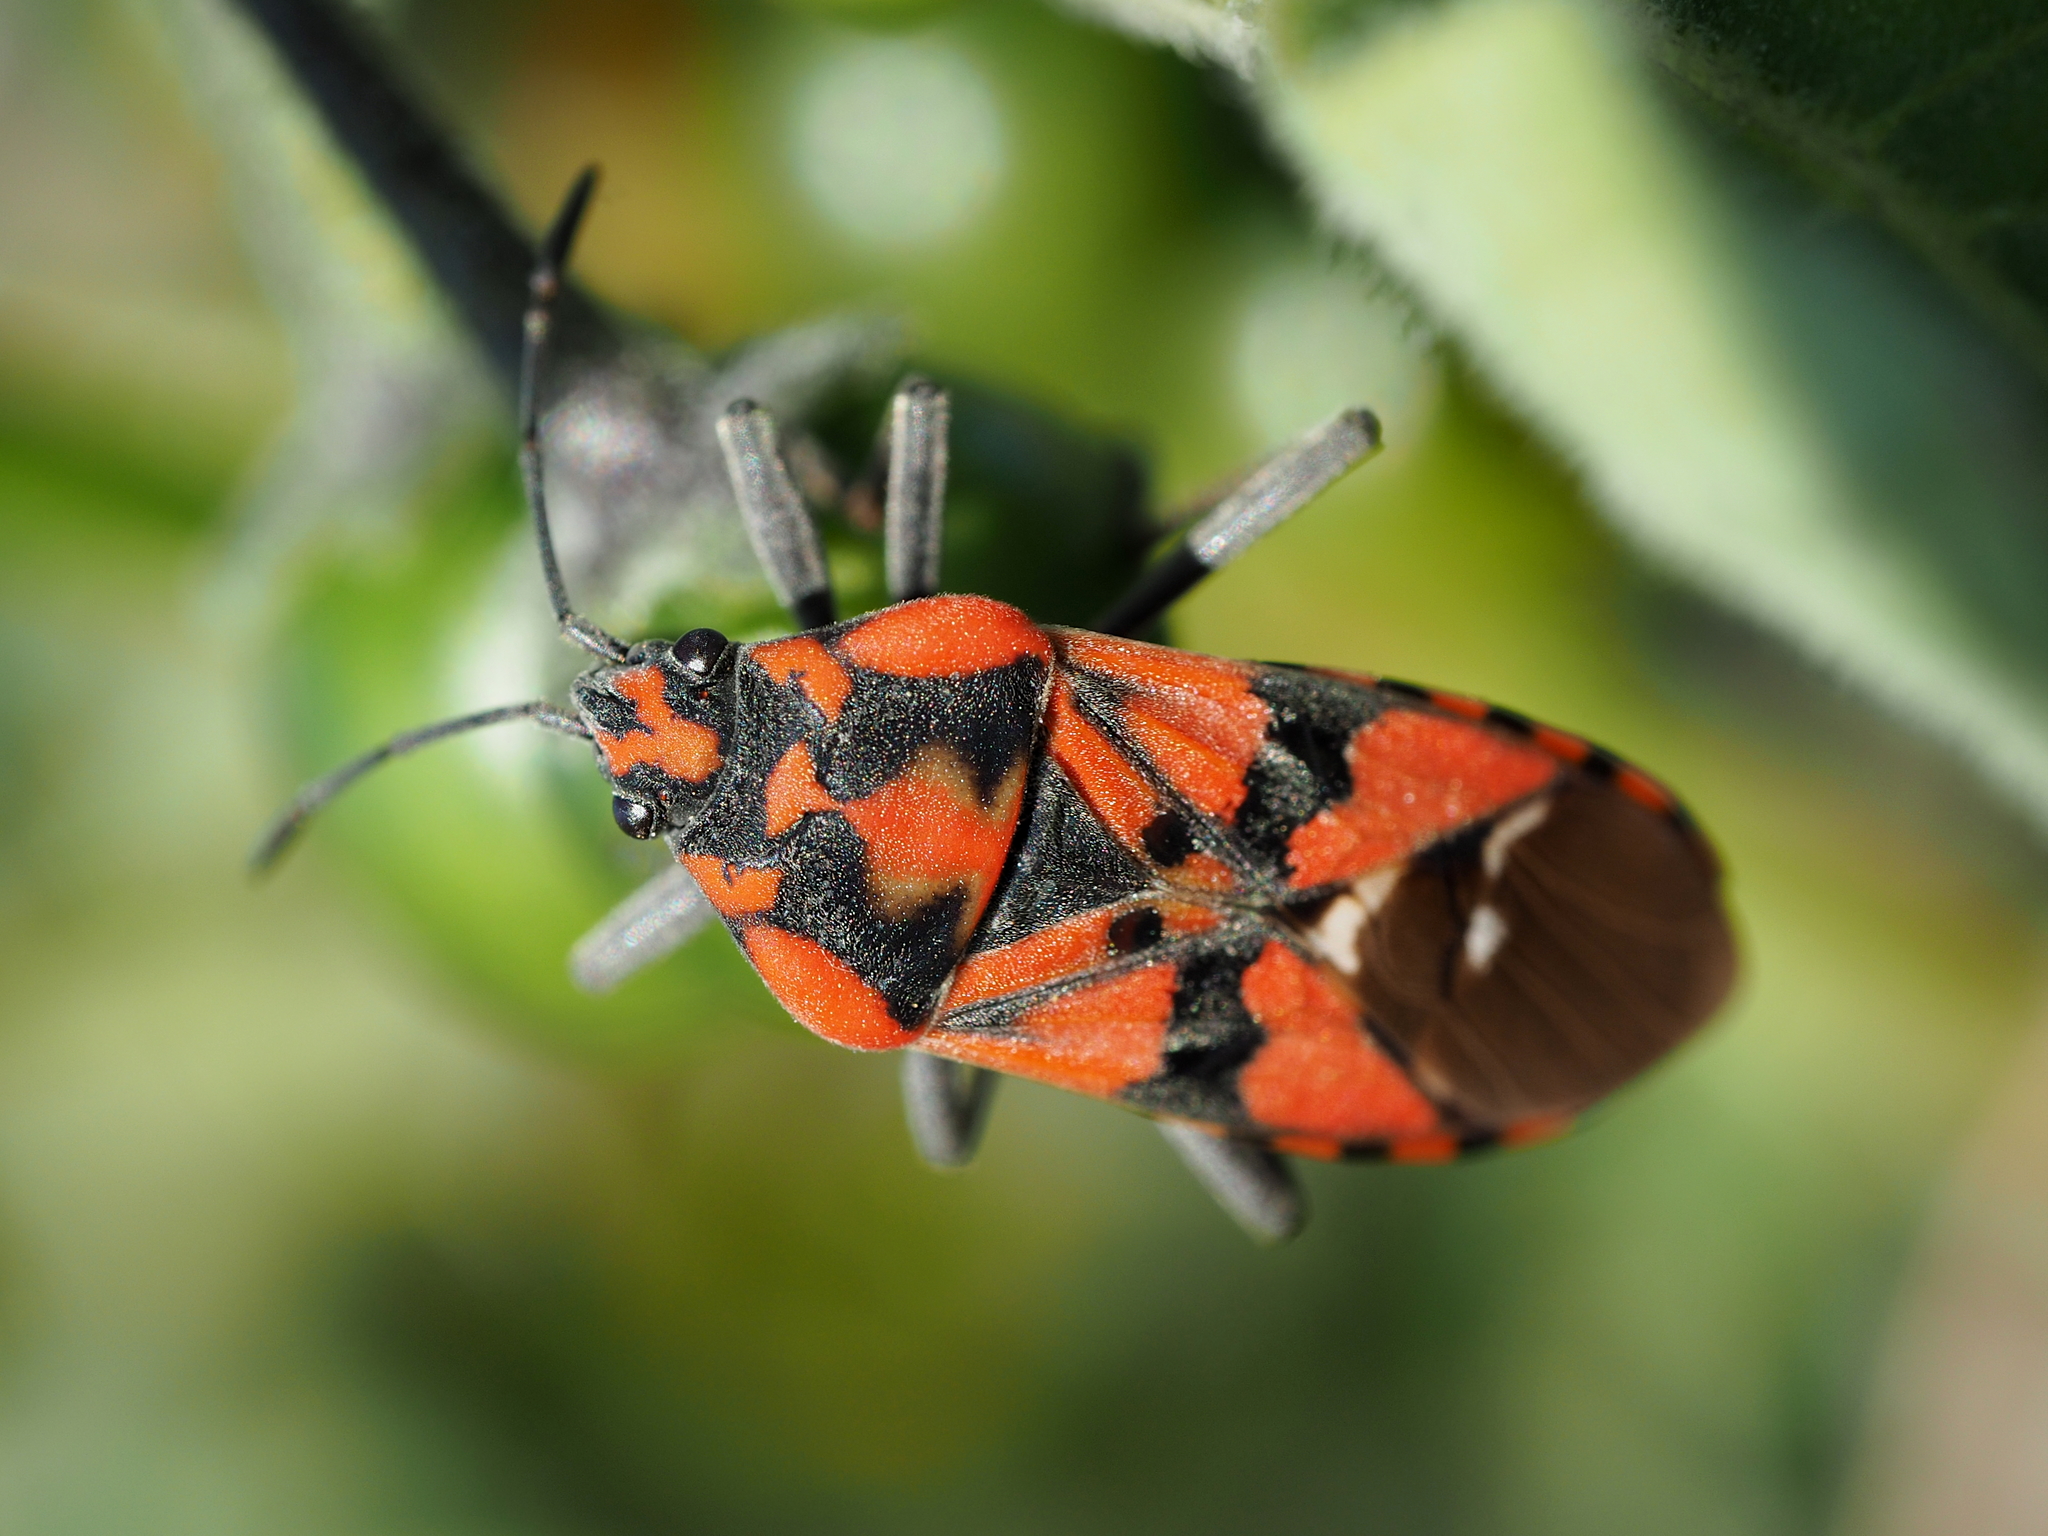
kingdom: Animalia
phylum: Arthropoda
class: Insecta
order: Hemiptera
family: Lygaeidae
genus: Spilostethus
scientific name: Spilostethus pandurus
